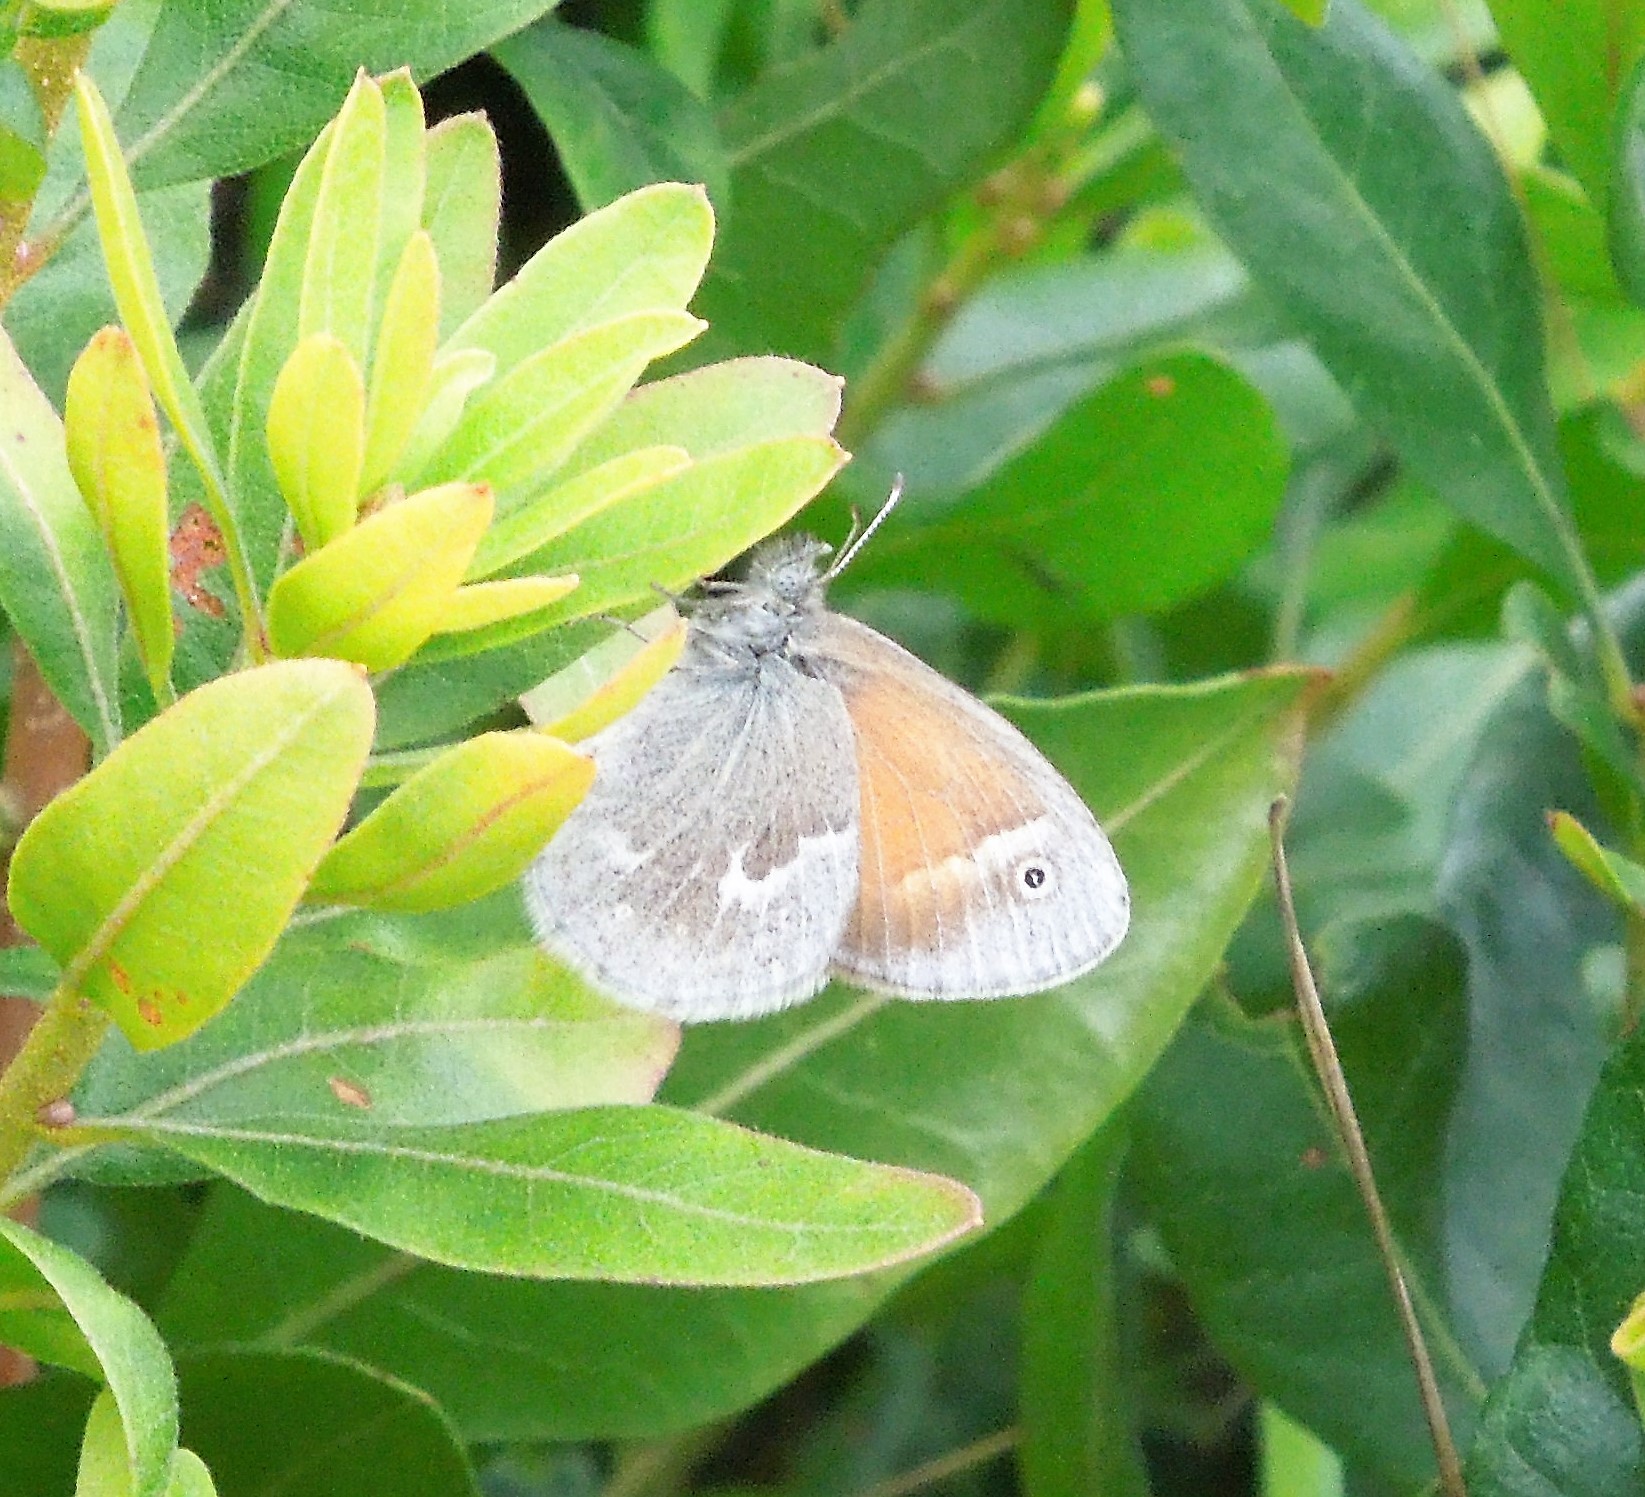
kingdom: Animalia
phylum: Arthropoda
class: Insecta
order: Lepidoptera
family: Nymphalidae
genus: Coenonympha
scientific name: Coenonympha california
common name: Common ringlet
